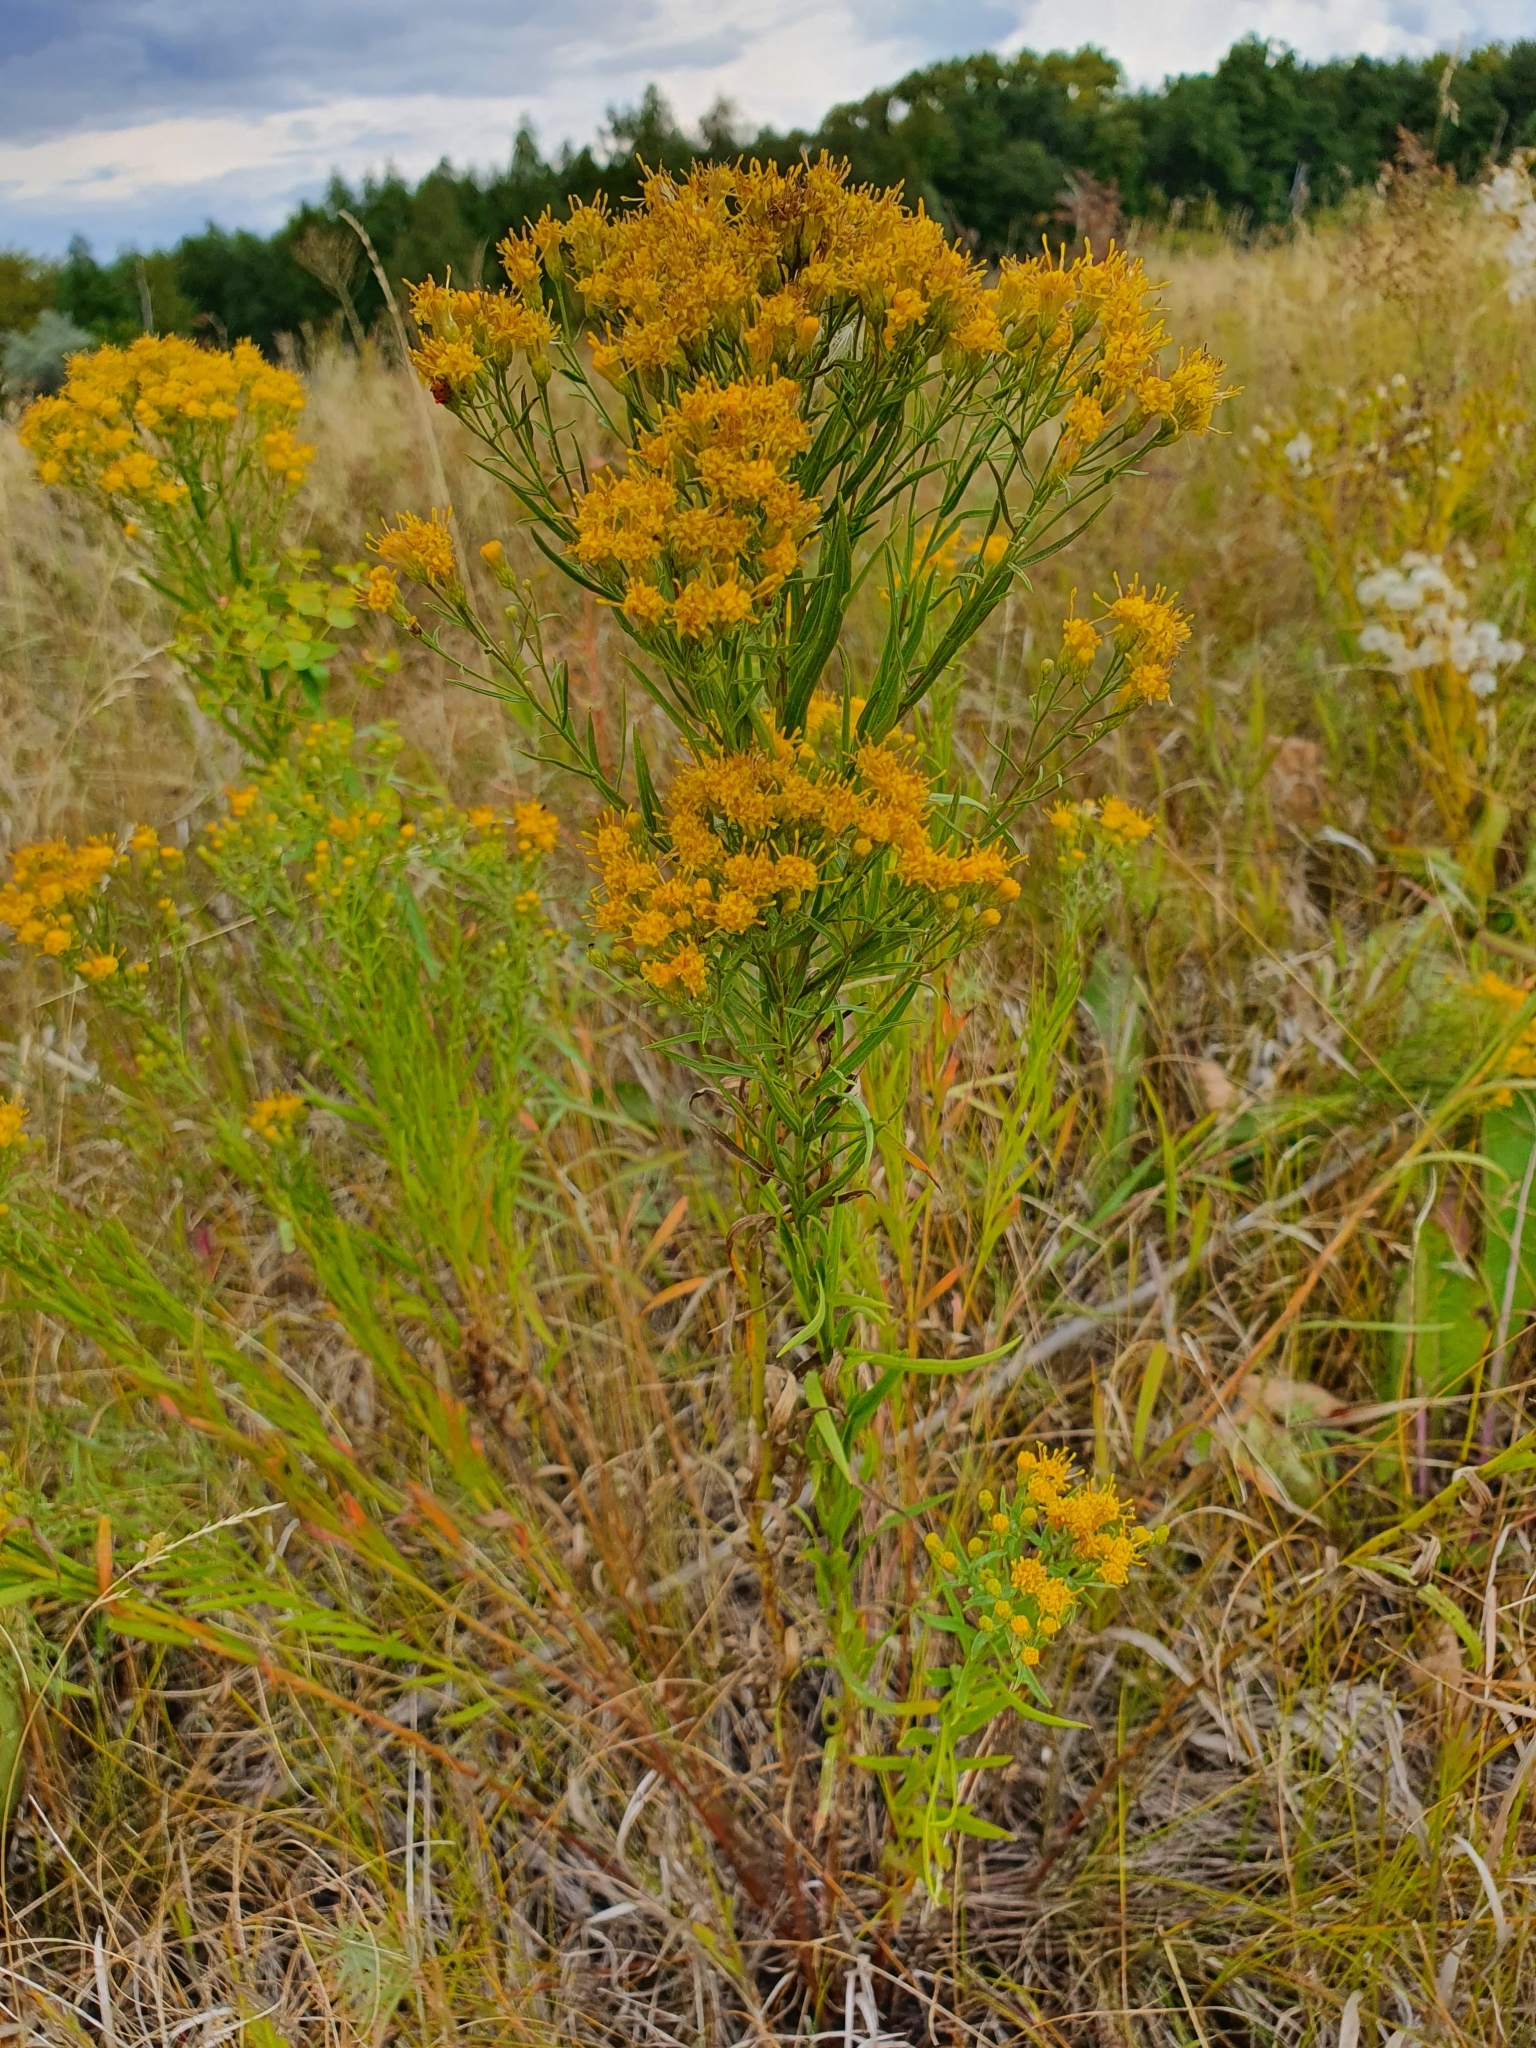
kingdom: Plantae
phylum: Tracheophyta
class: Magnoliopsida
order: Asterales
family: Asteraceae
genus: Galatella
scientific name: Galatella biflora
